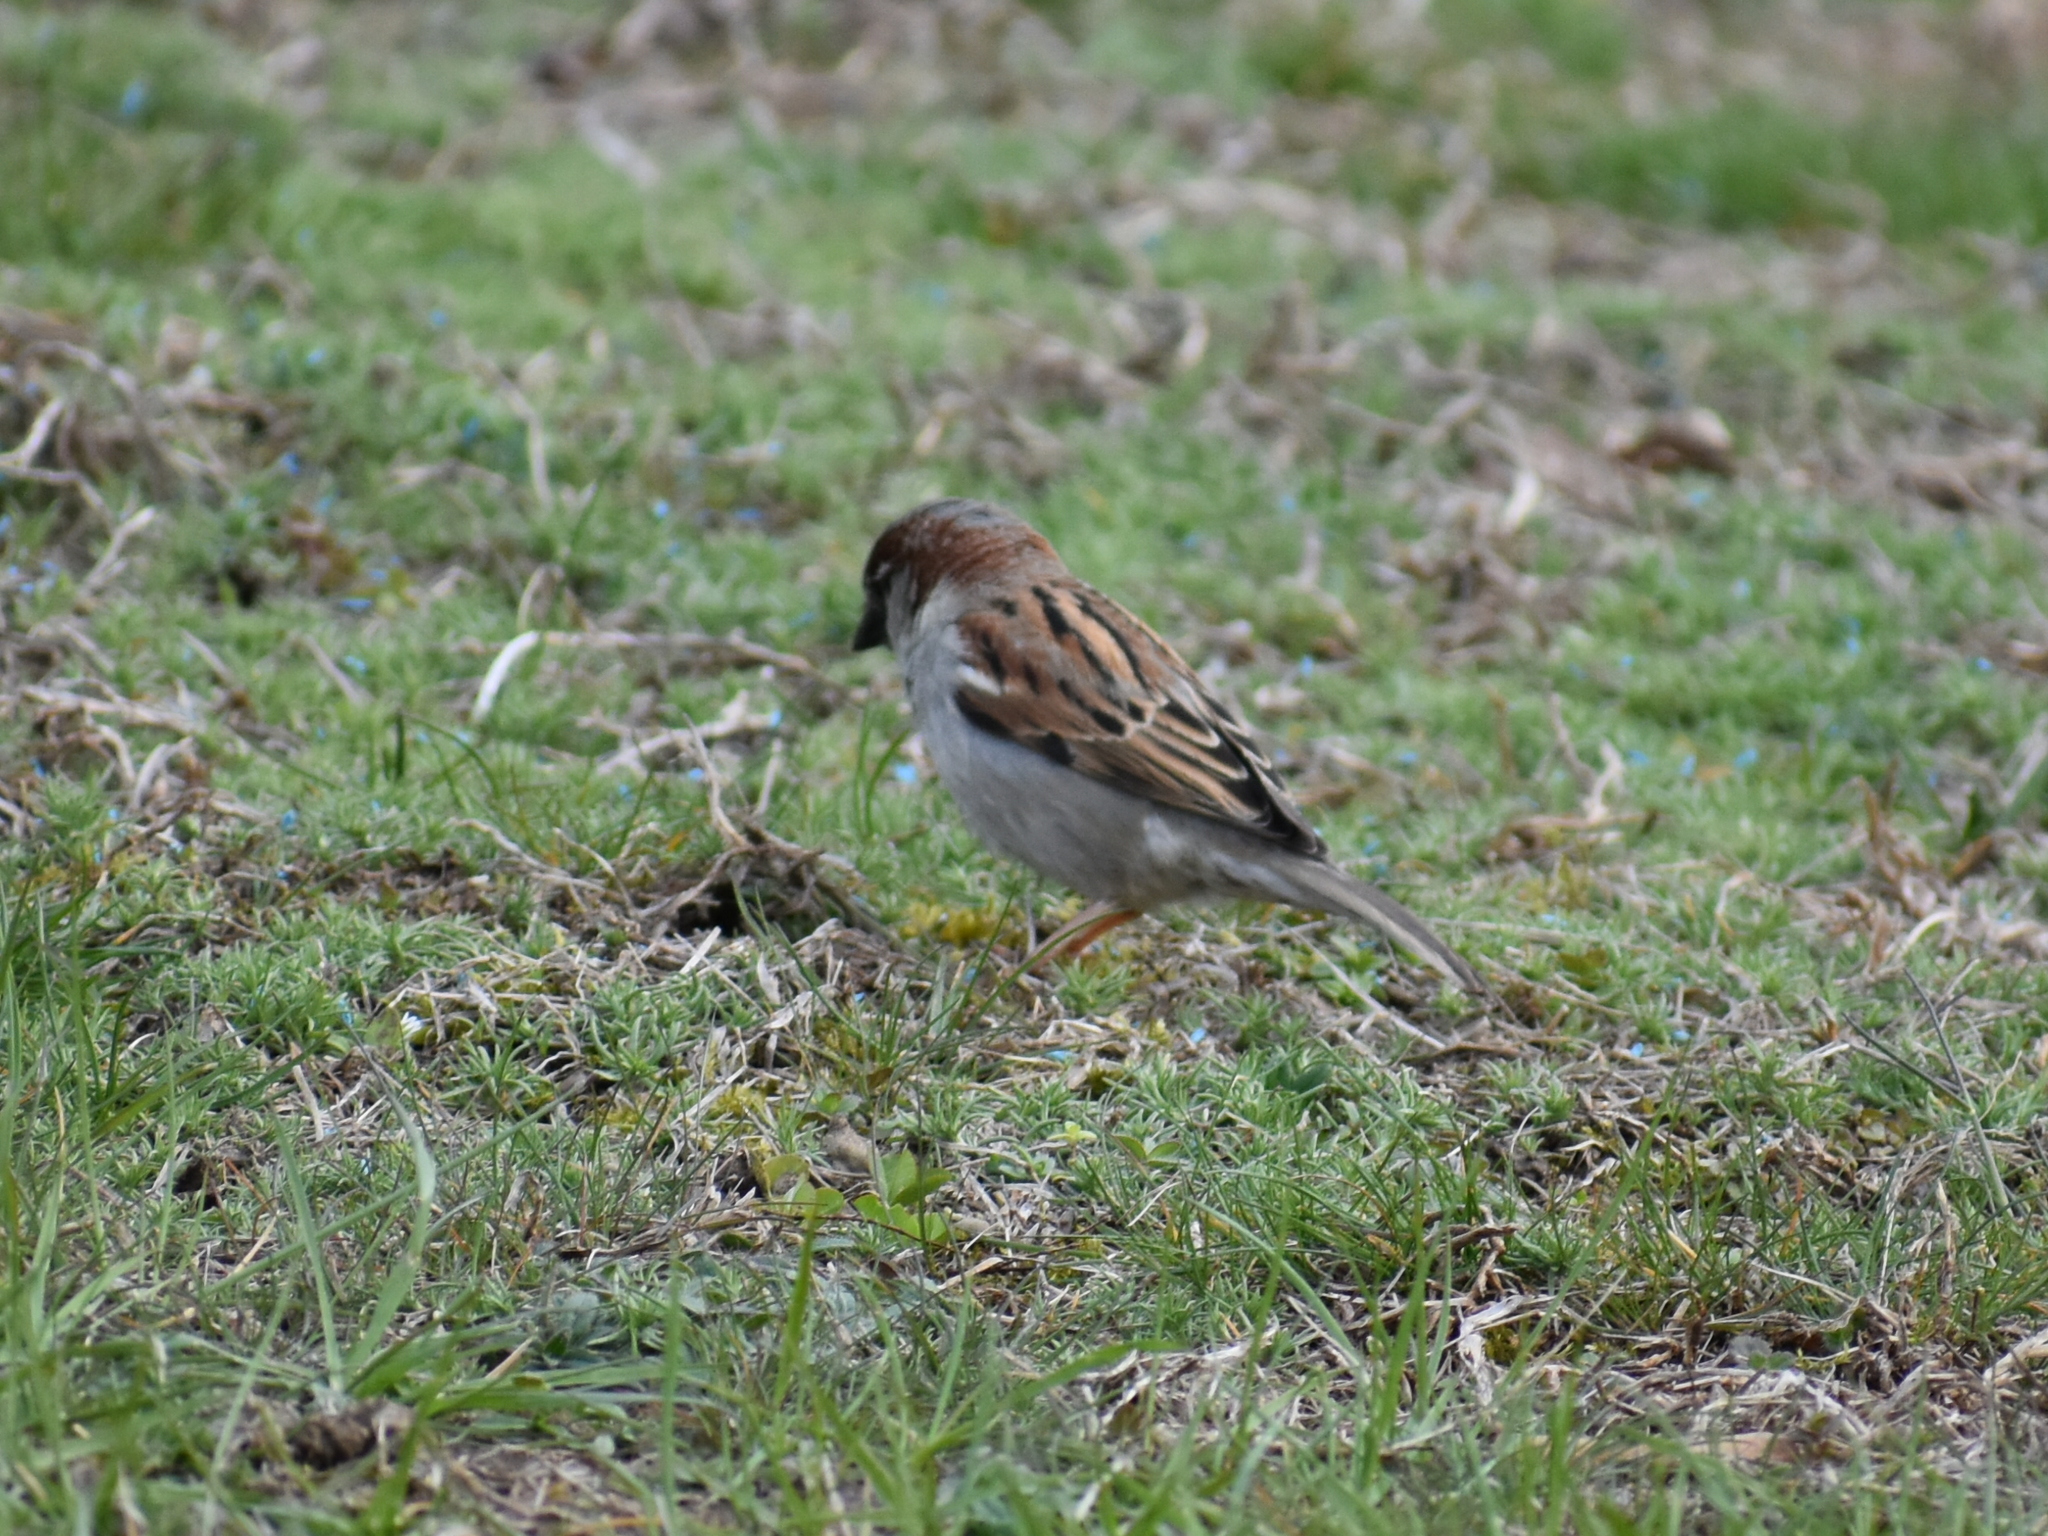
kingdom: Animalia
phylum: Chordata
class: Aves
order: Passeriformes
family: Passeridae
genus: Passer
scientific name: Passer domesticus
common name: House sparrow
